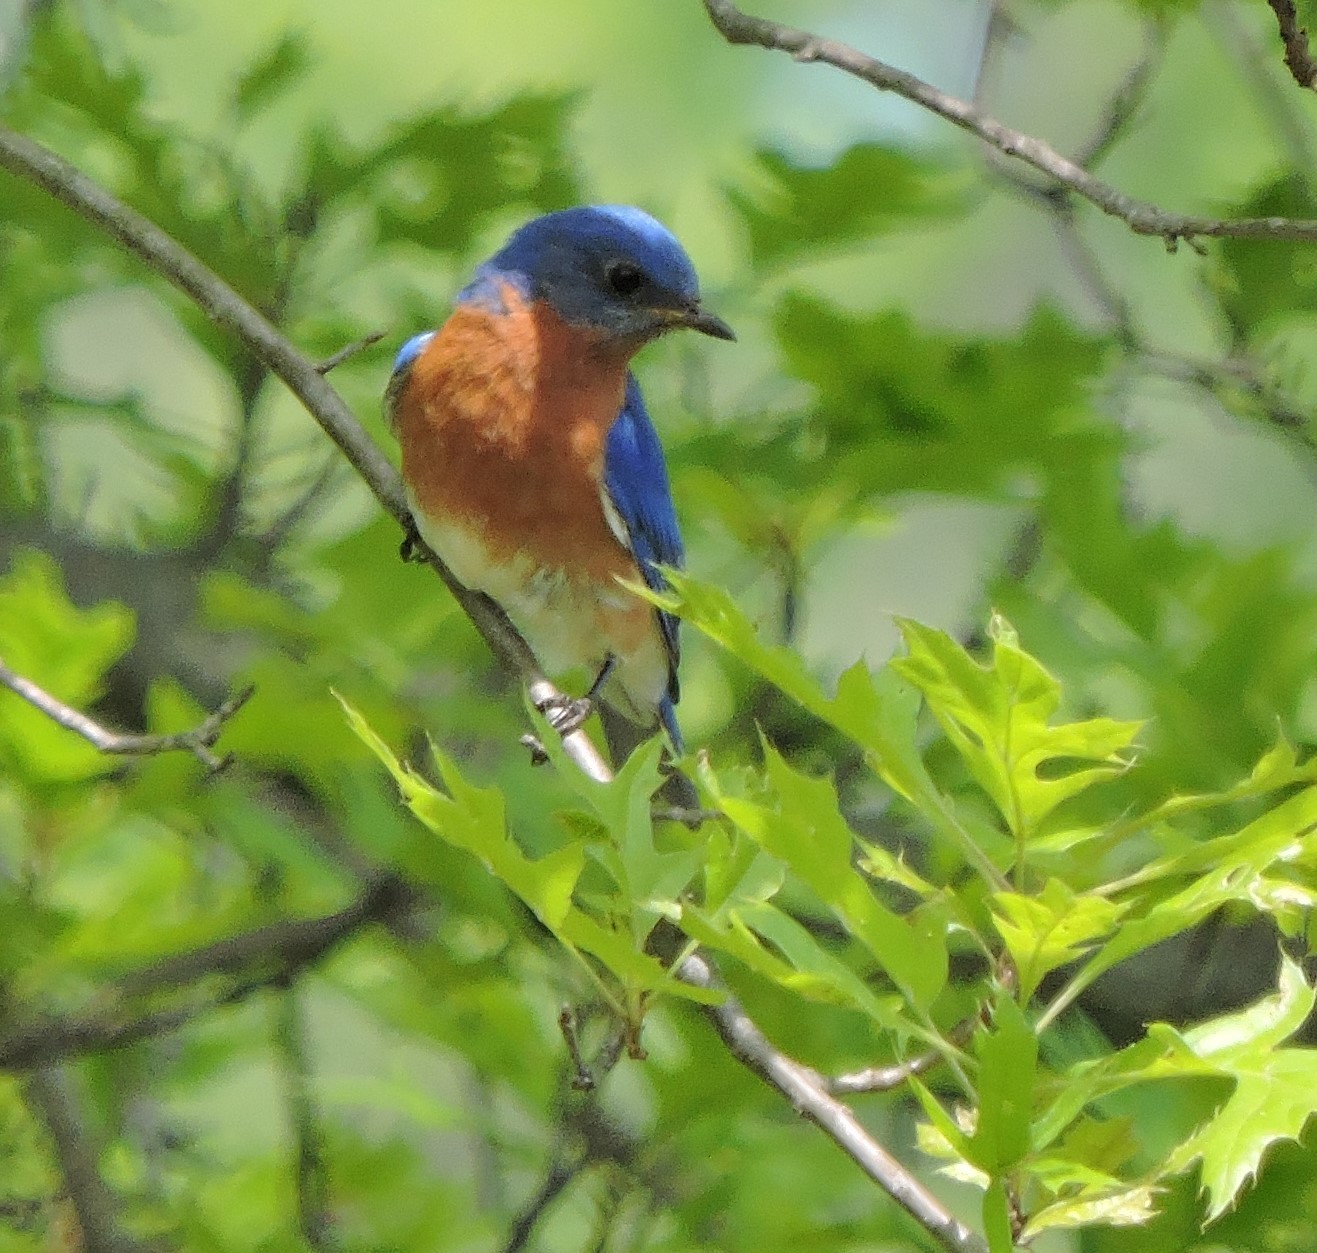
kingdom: Animalia
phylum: Chordata
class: Aves
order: Passeriformes
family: Turdidae
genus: Sialia
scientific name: Sialia sialis
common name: Eastern bluebird
